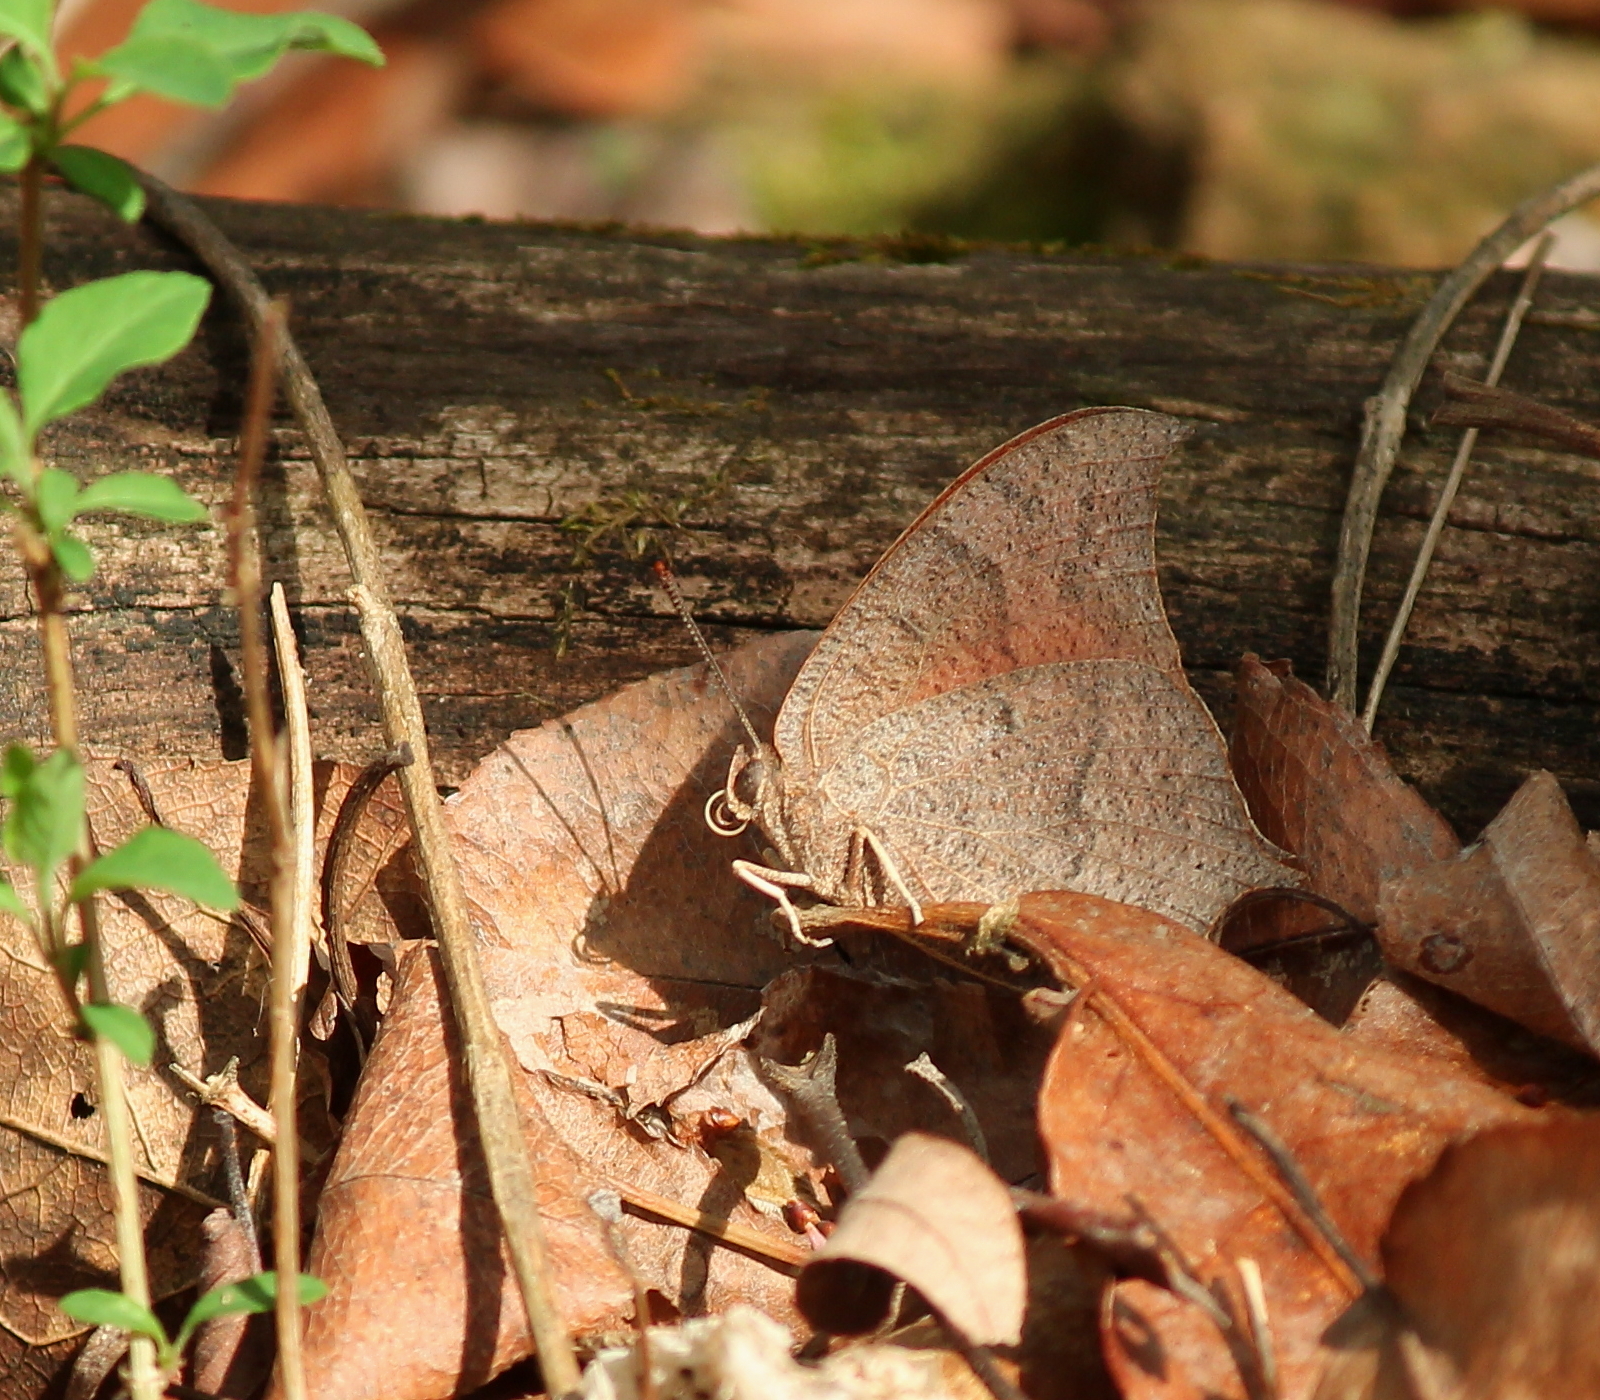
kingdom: Animalia
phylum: Arthropoda
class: Insecta
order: Lepidoptera
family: Nymphalidae
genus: Anaea
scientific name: Anaea andria
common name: Goatweed leafwing
